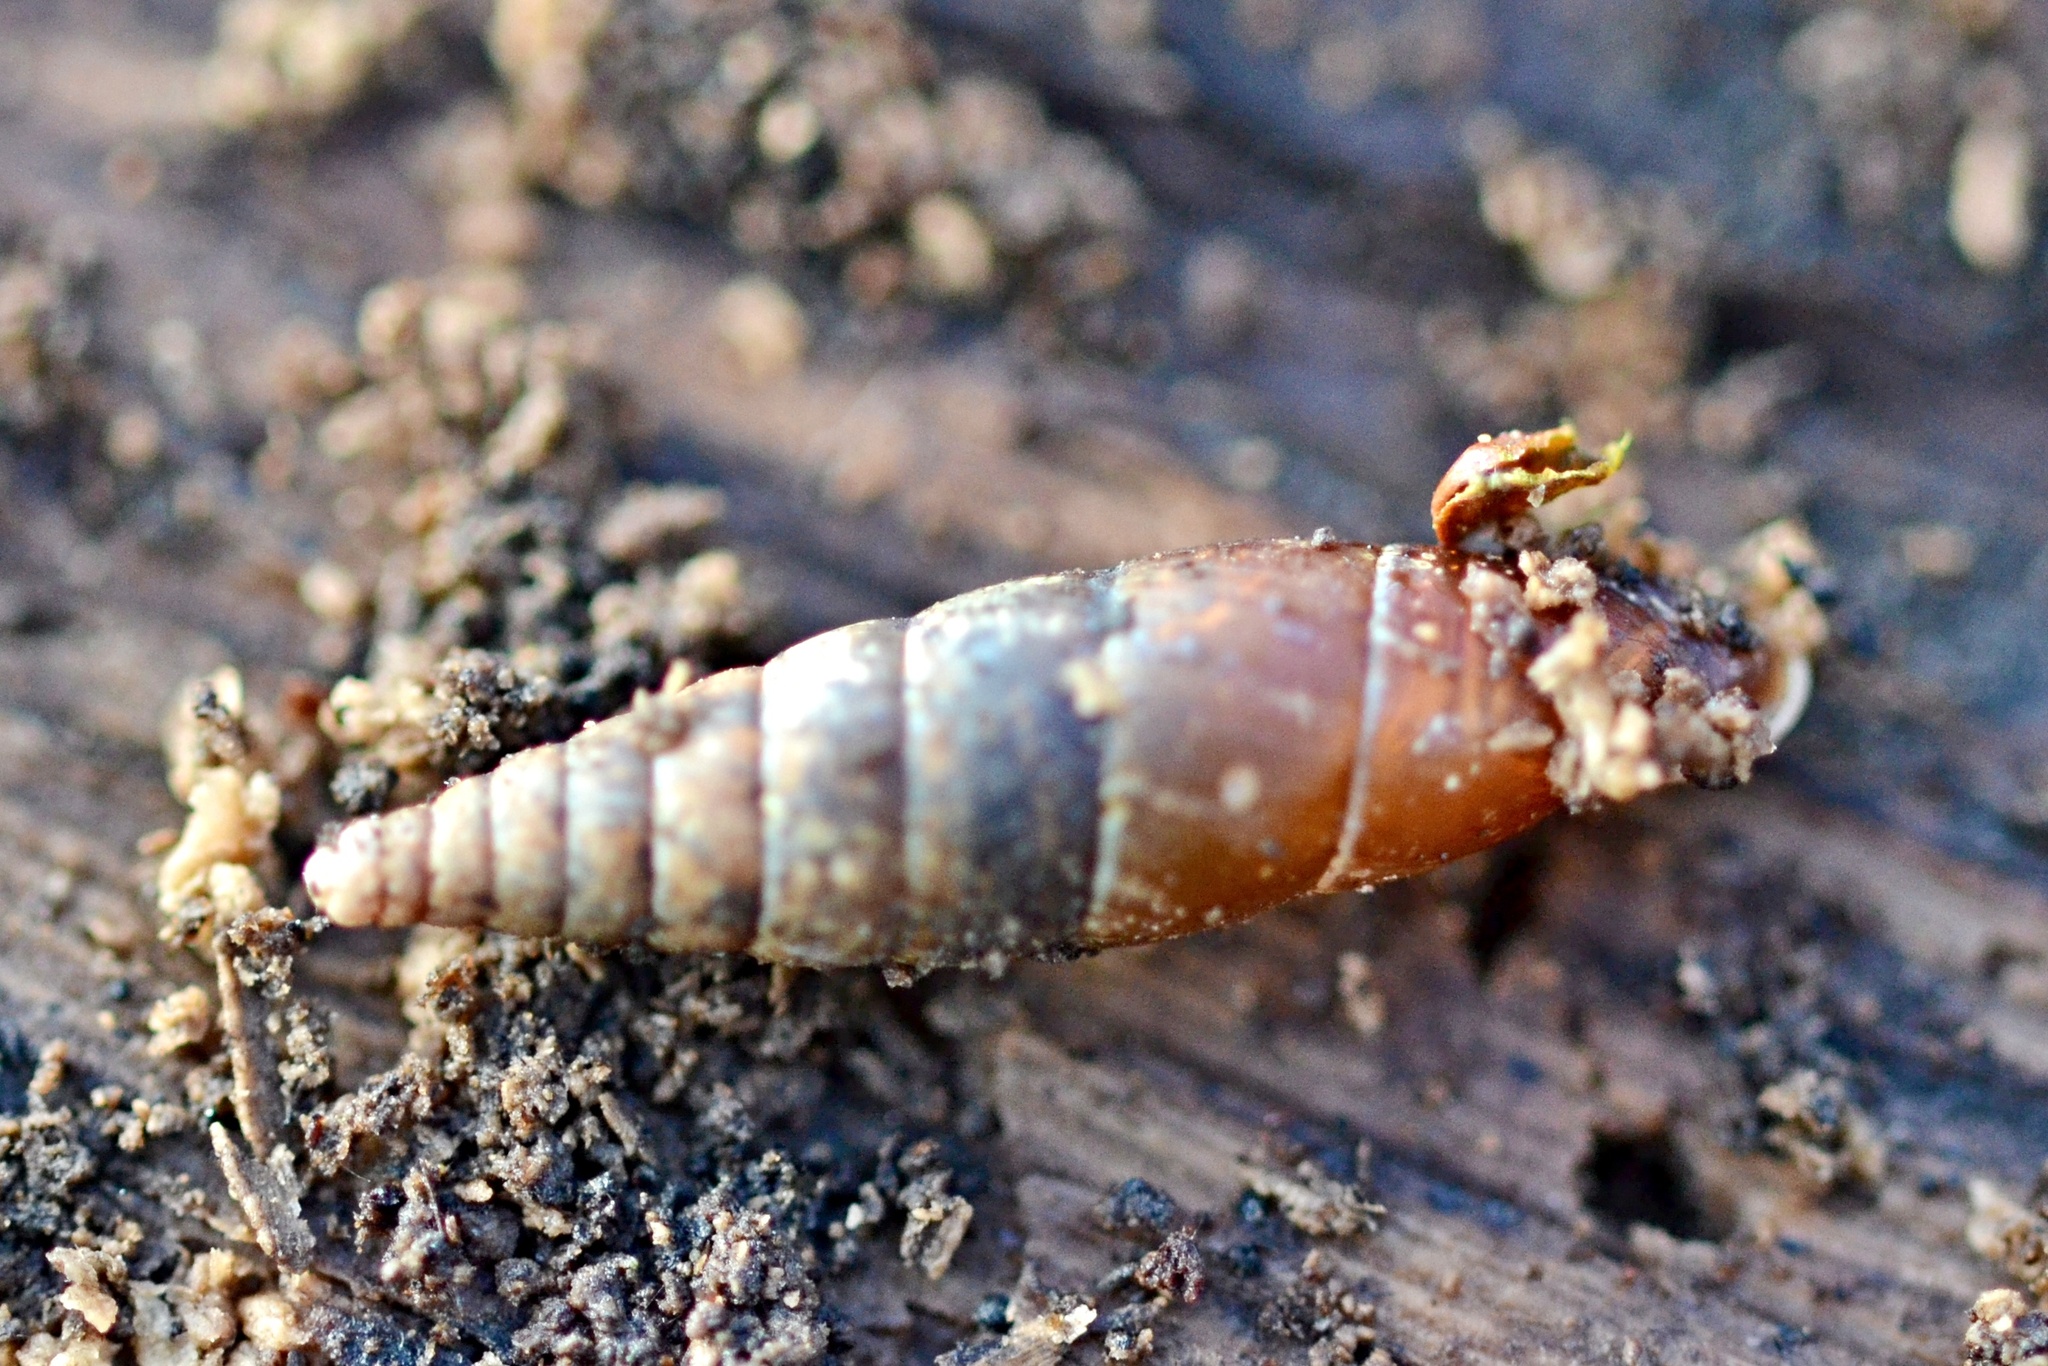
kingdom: Animalia
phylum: Mollusca
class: Gastropoda
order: Stylommatophora
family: Clausiliidae
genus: Cochlodina
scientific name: Cochlodina laminata
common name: Plaited door snail
